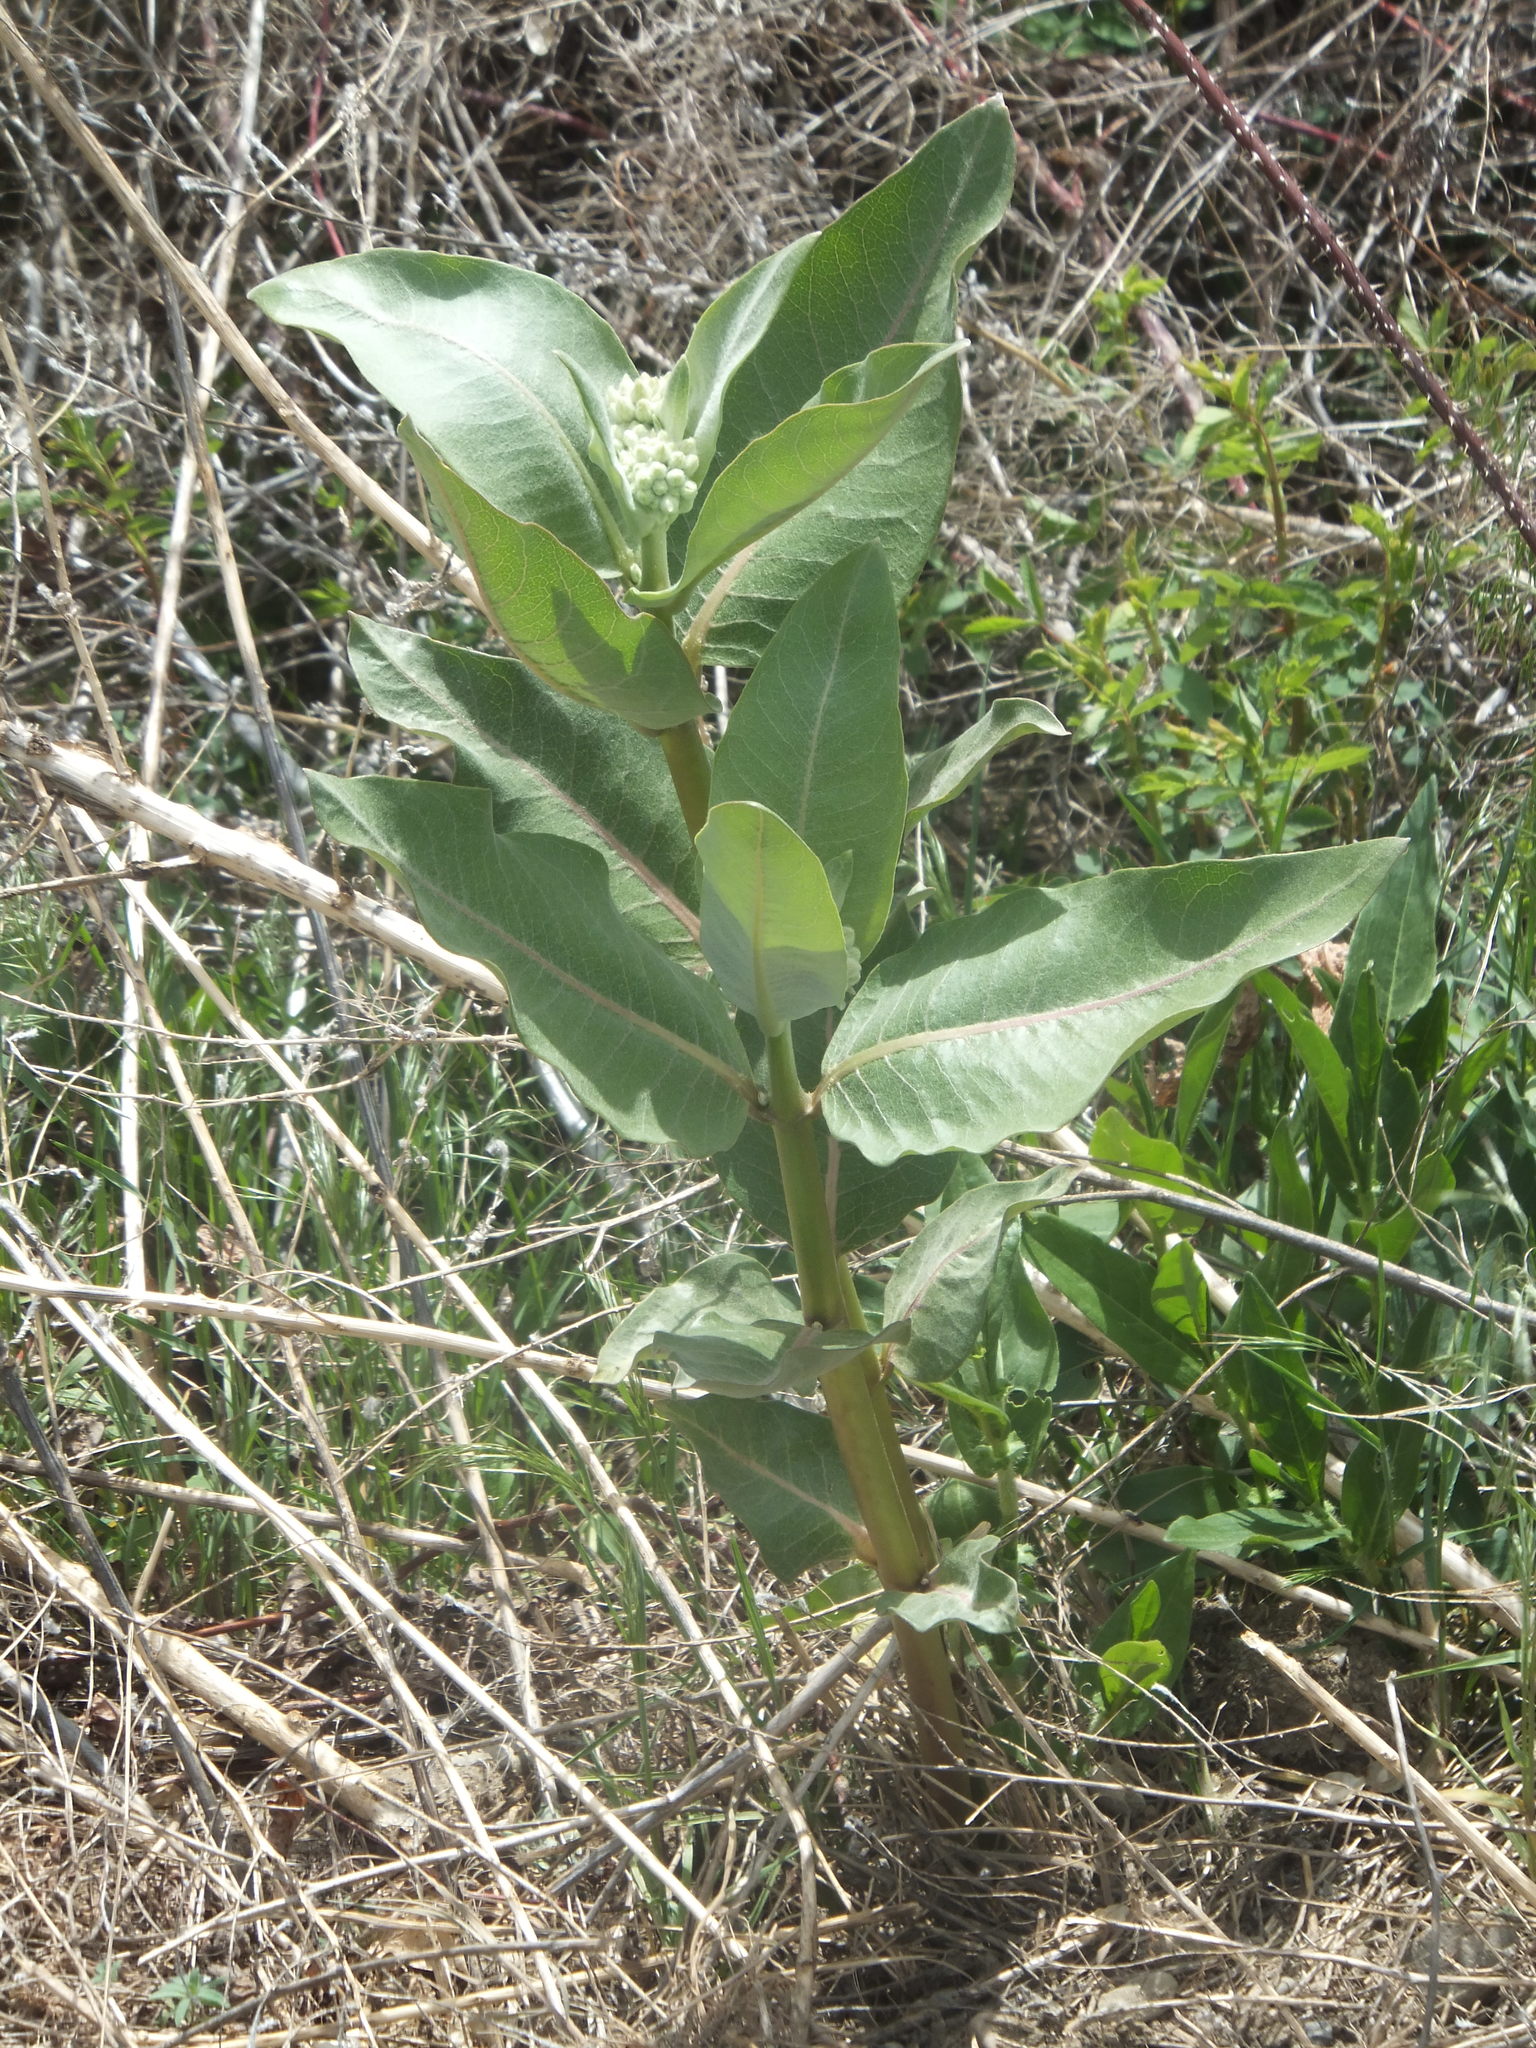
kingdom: Plantae
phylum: Tracheophyta
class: Magnoliopsida
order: Gentianales
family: Apocynaceae
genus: Asclepias
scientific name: Asclepias speciosa
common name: Showy milkweed
